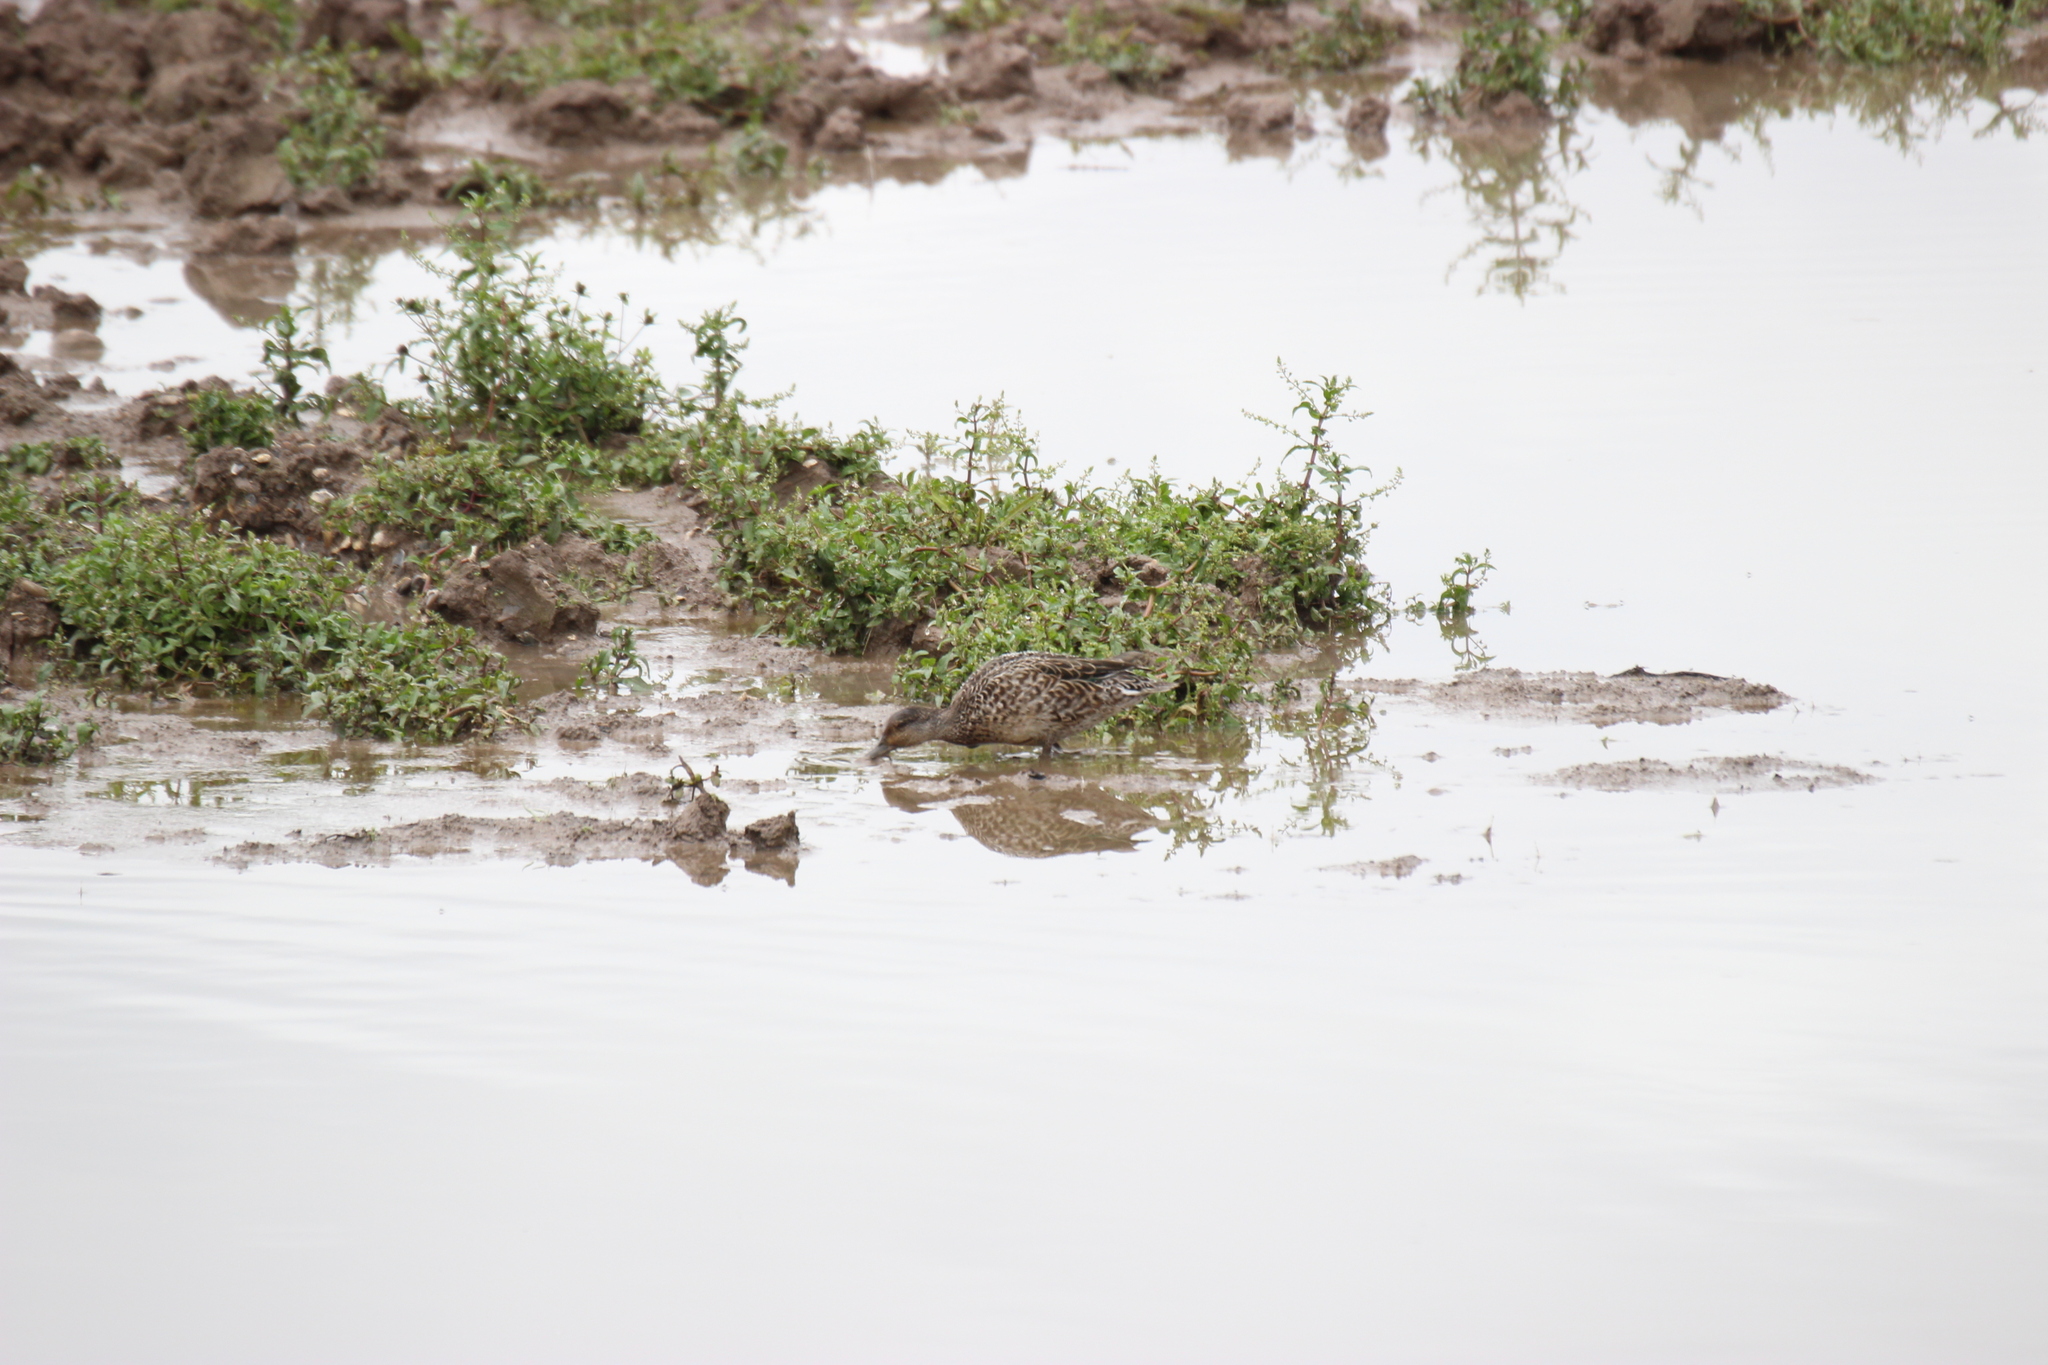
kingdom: Animalia
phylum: Chordata
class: Aves
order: Anseriformes
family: Anatidae
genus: Anas
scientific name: Anas crecca
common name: Eurasian teal
